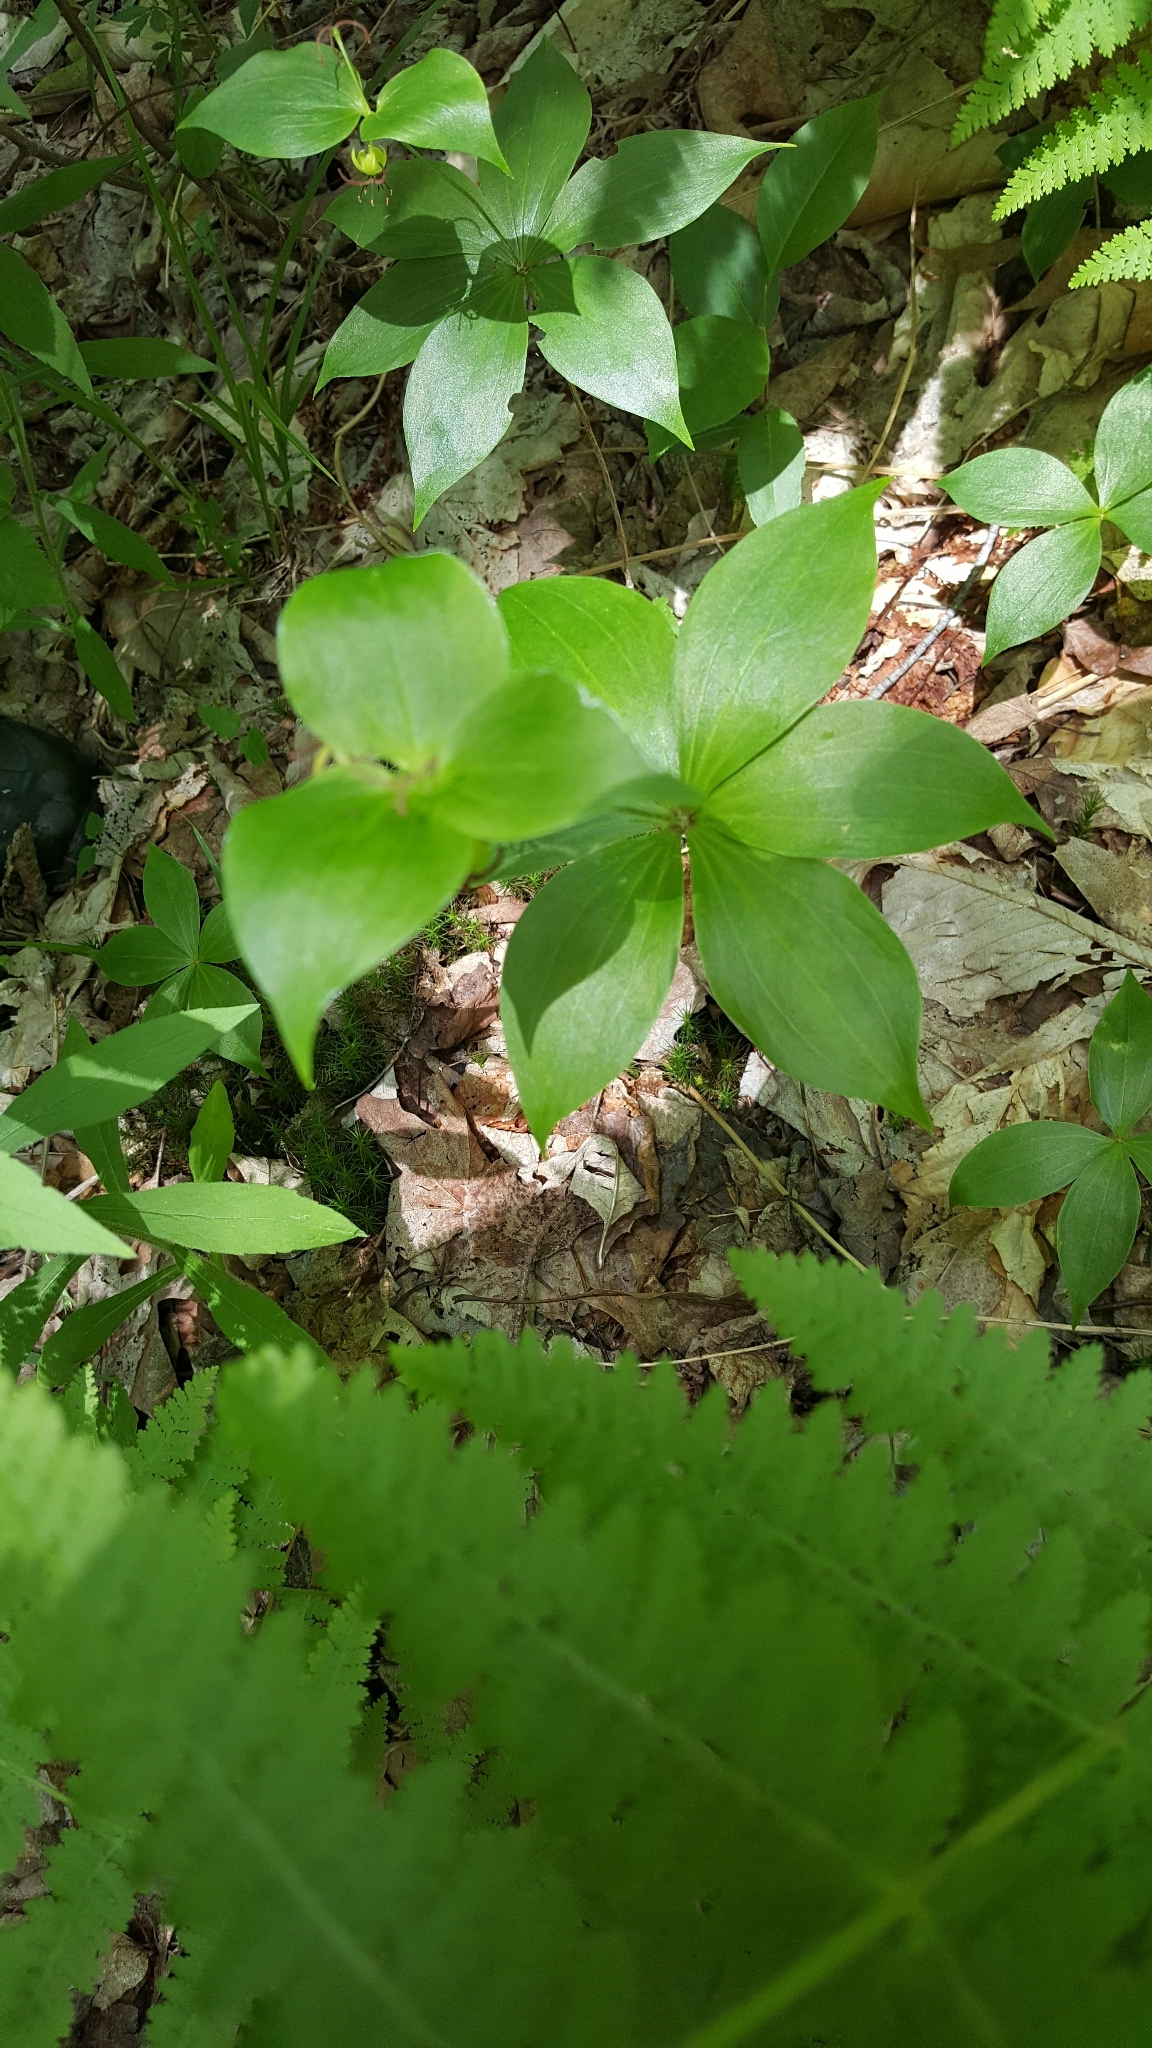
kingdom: Plantae
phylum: Tracheophyta
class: Liliopsida
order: Liliales
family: Liliaceae
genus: Medeola
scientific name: Medeola virginiana
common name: Indian cucumber-root
